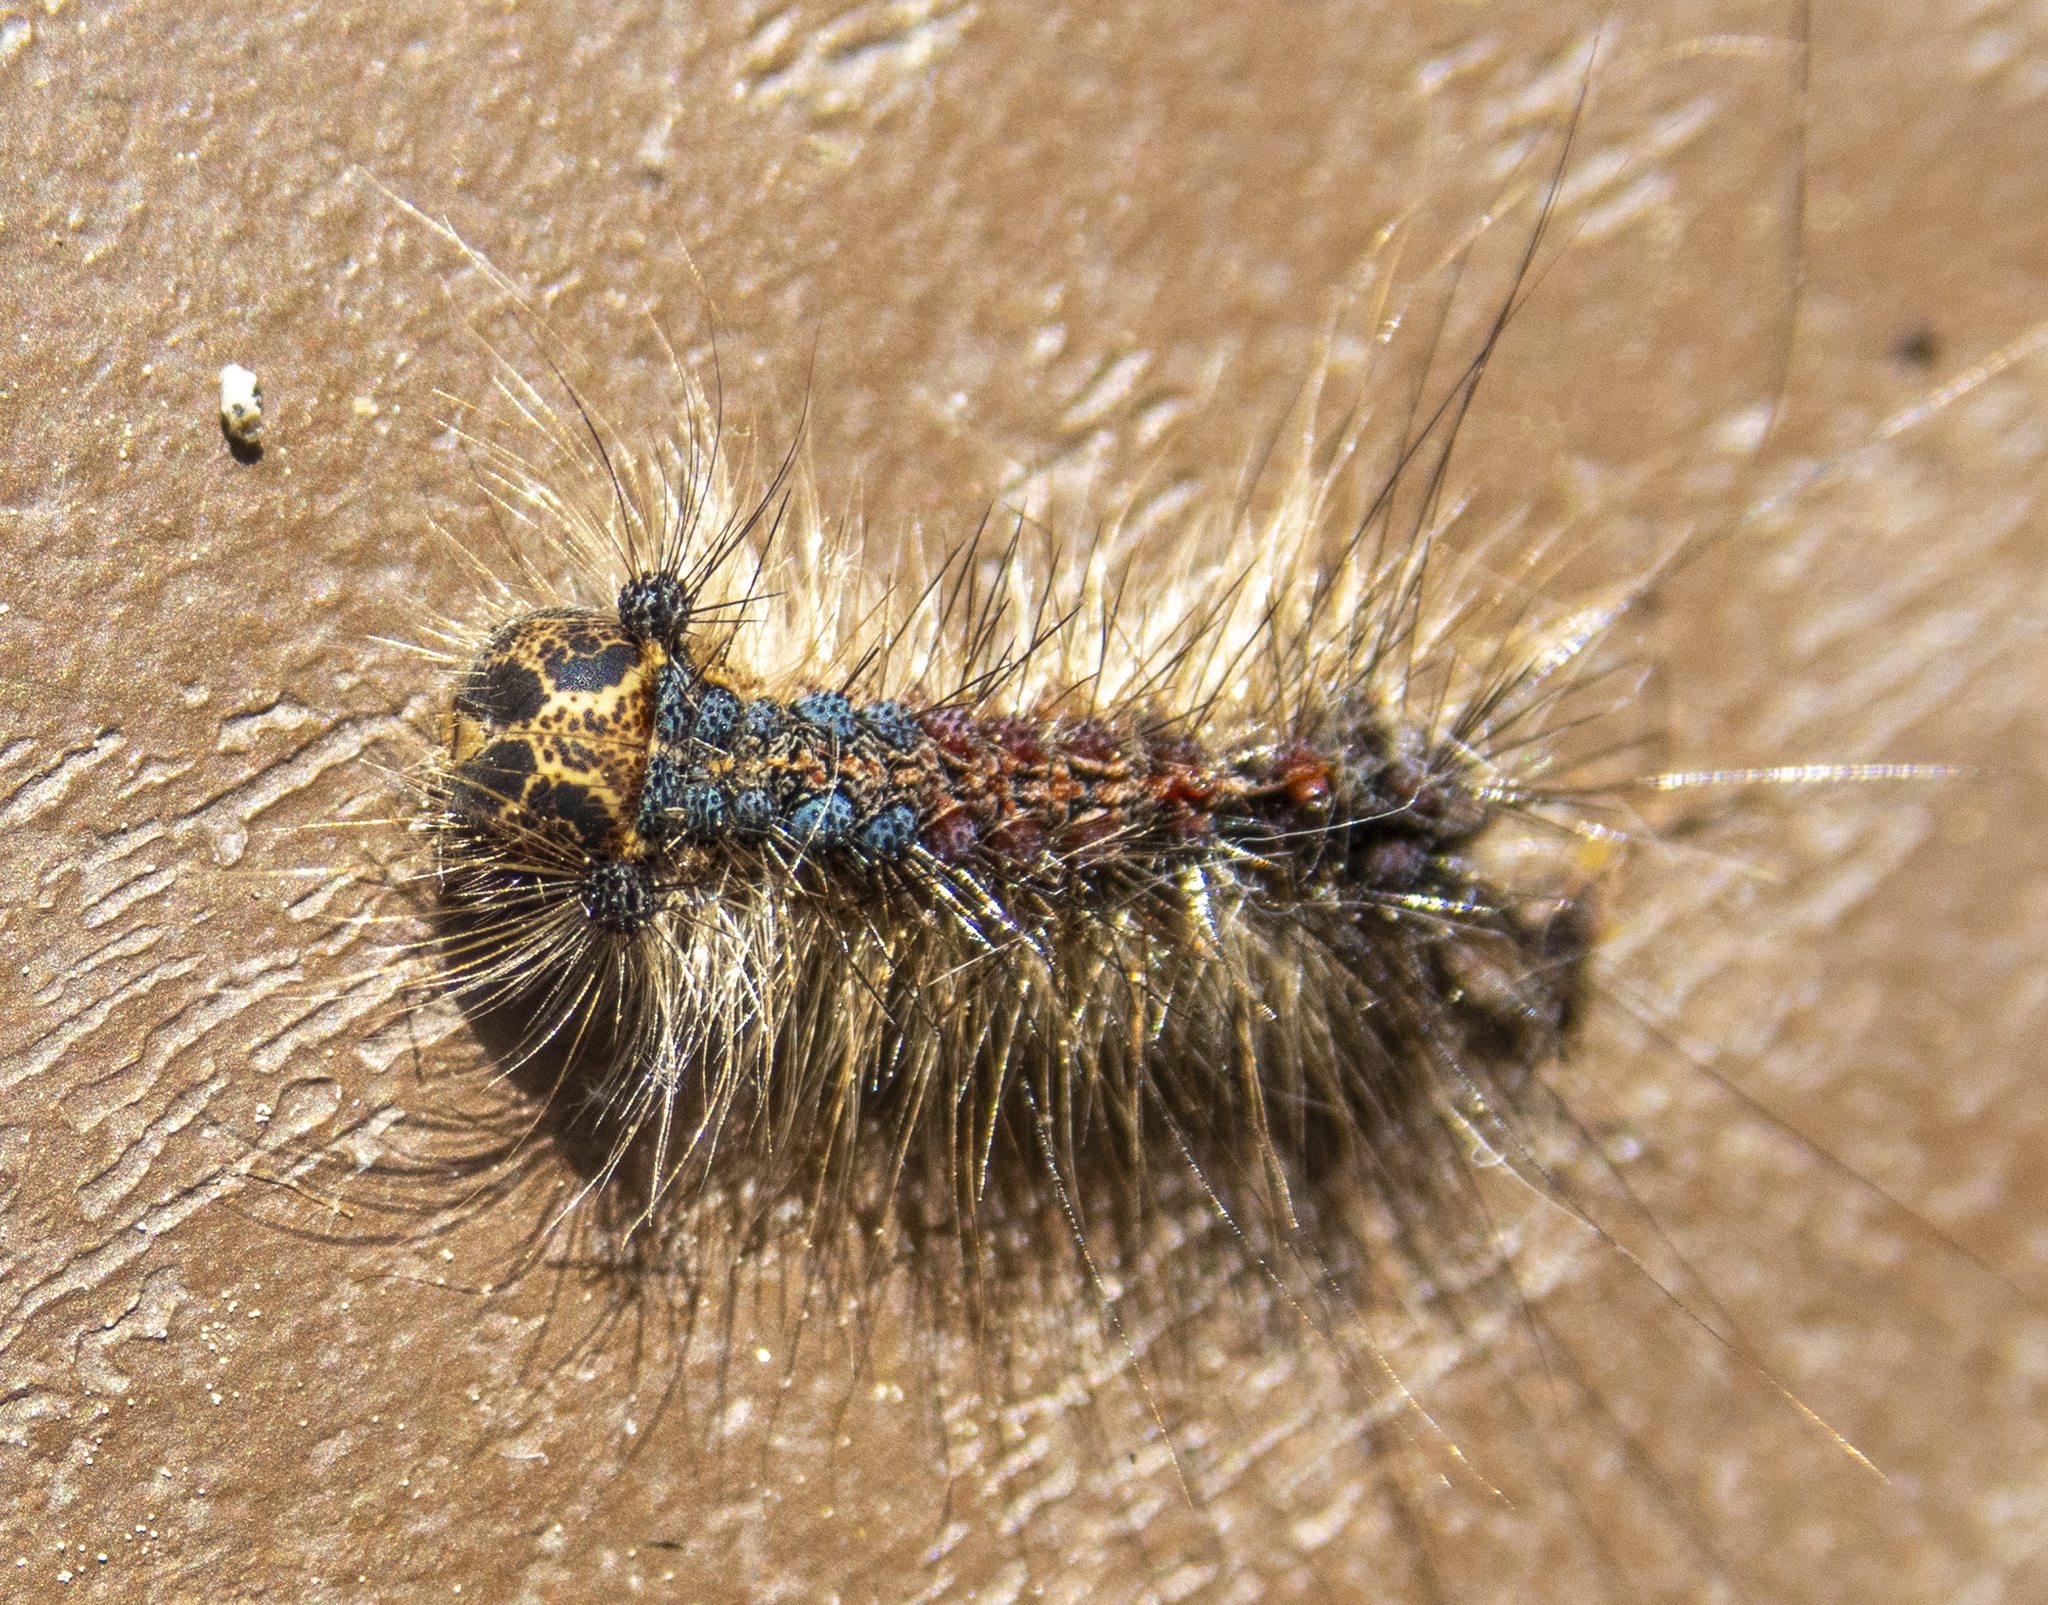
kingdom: Animalia
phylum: Arthropoda
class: Insecta
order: Lepidoptera
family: Erebidae
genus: Lymantria
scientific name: Lymantria dispar
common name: Gypsy moth
